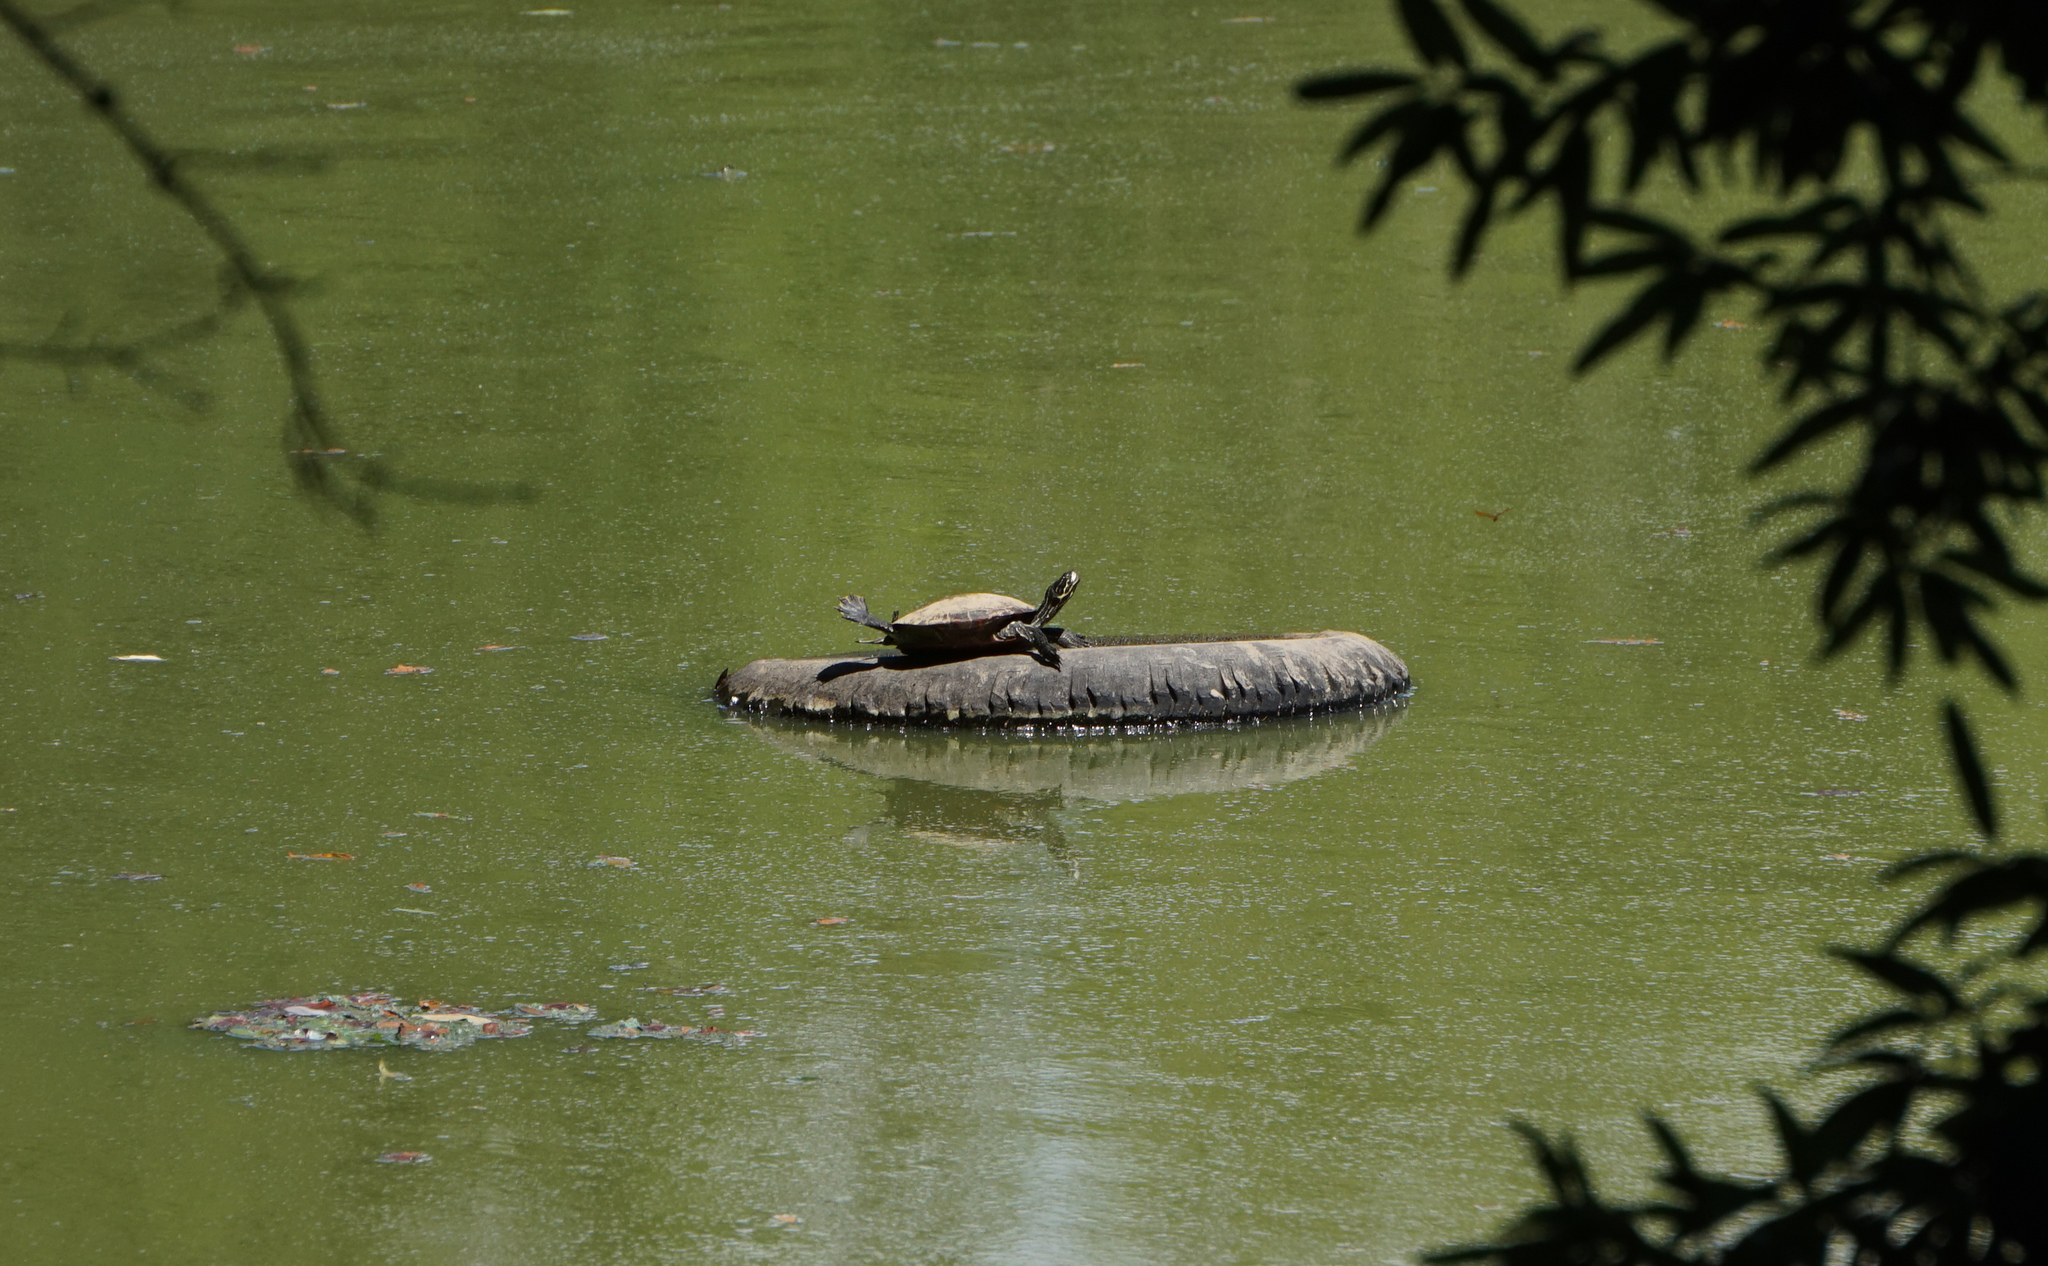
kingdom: Animalia
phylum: Chordata
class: Testudines
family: Emydidae
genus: Pseudemys
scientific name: Pseudemys concinna
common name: Eastern river cooter
